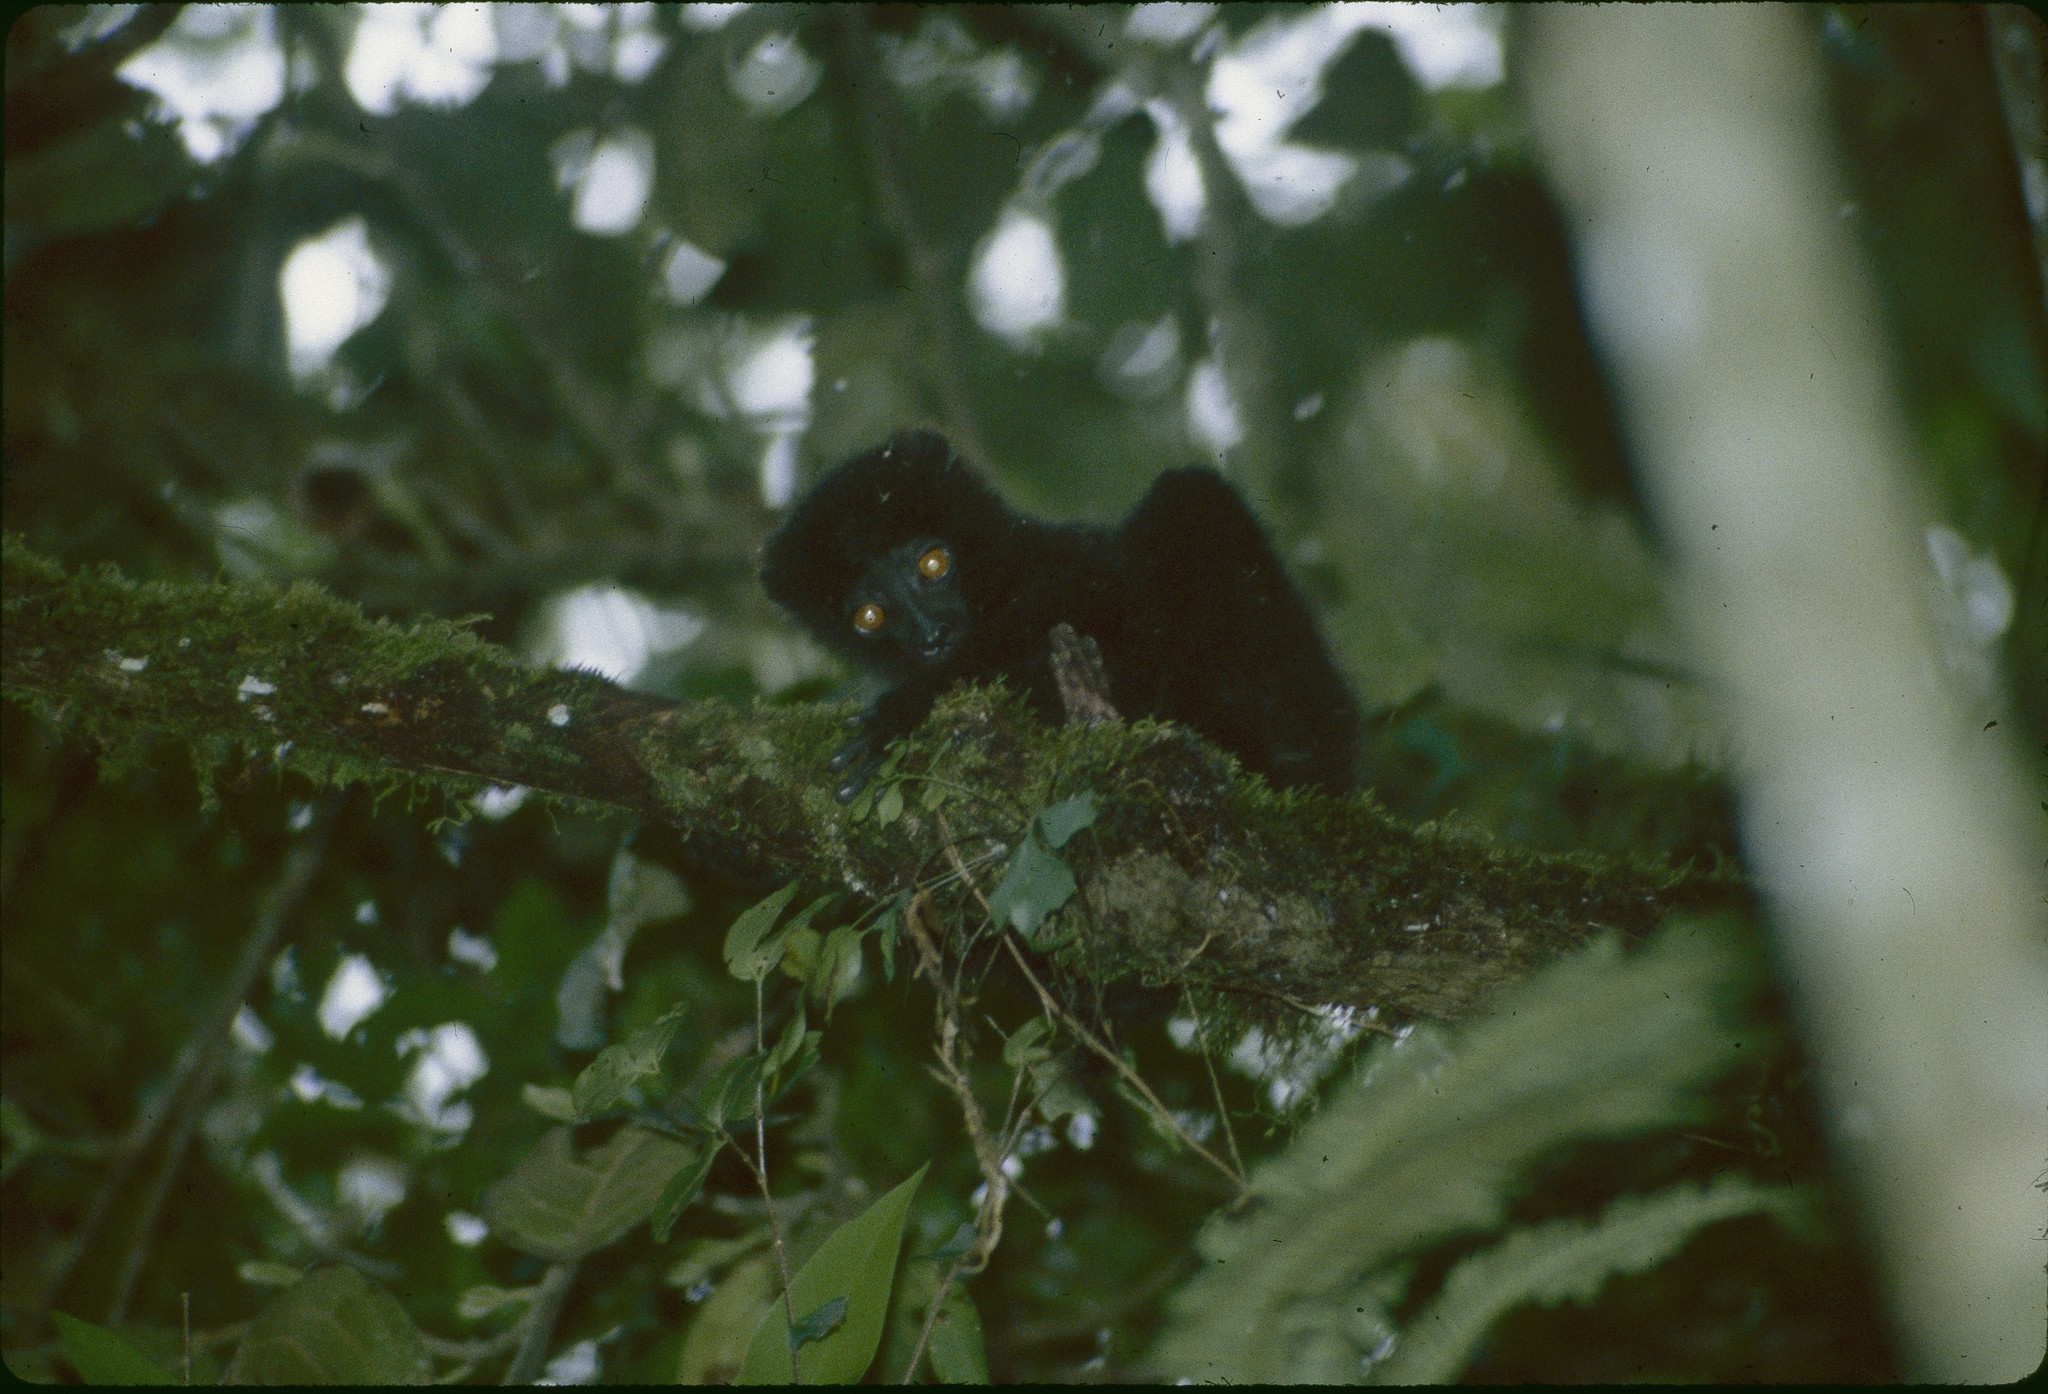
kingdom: Animalia
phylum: Chordata
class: Mammalia
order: Primates
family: Indriidae
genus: Propithecus
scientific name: Propithecus edwardsi
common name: Milne-edwards’s simpona
